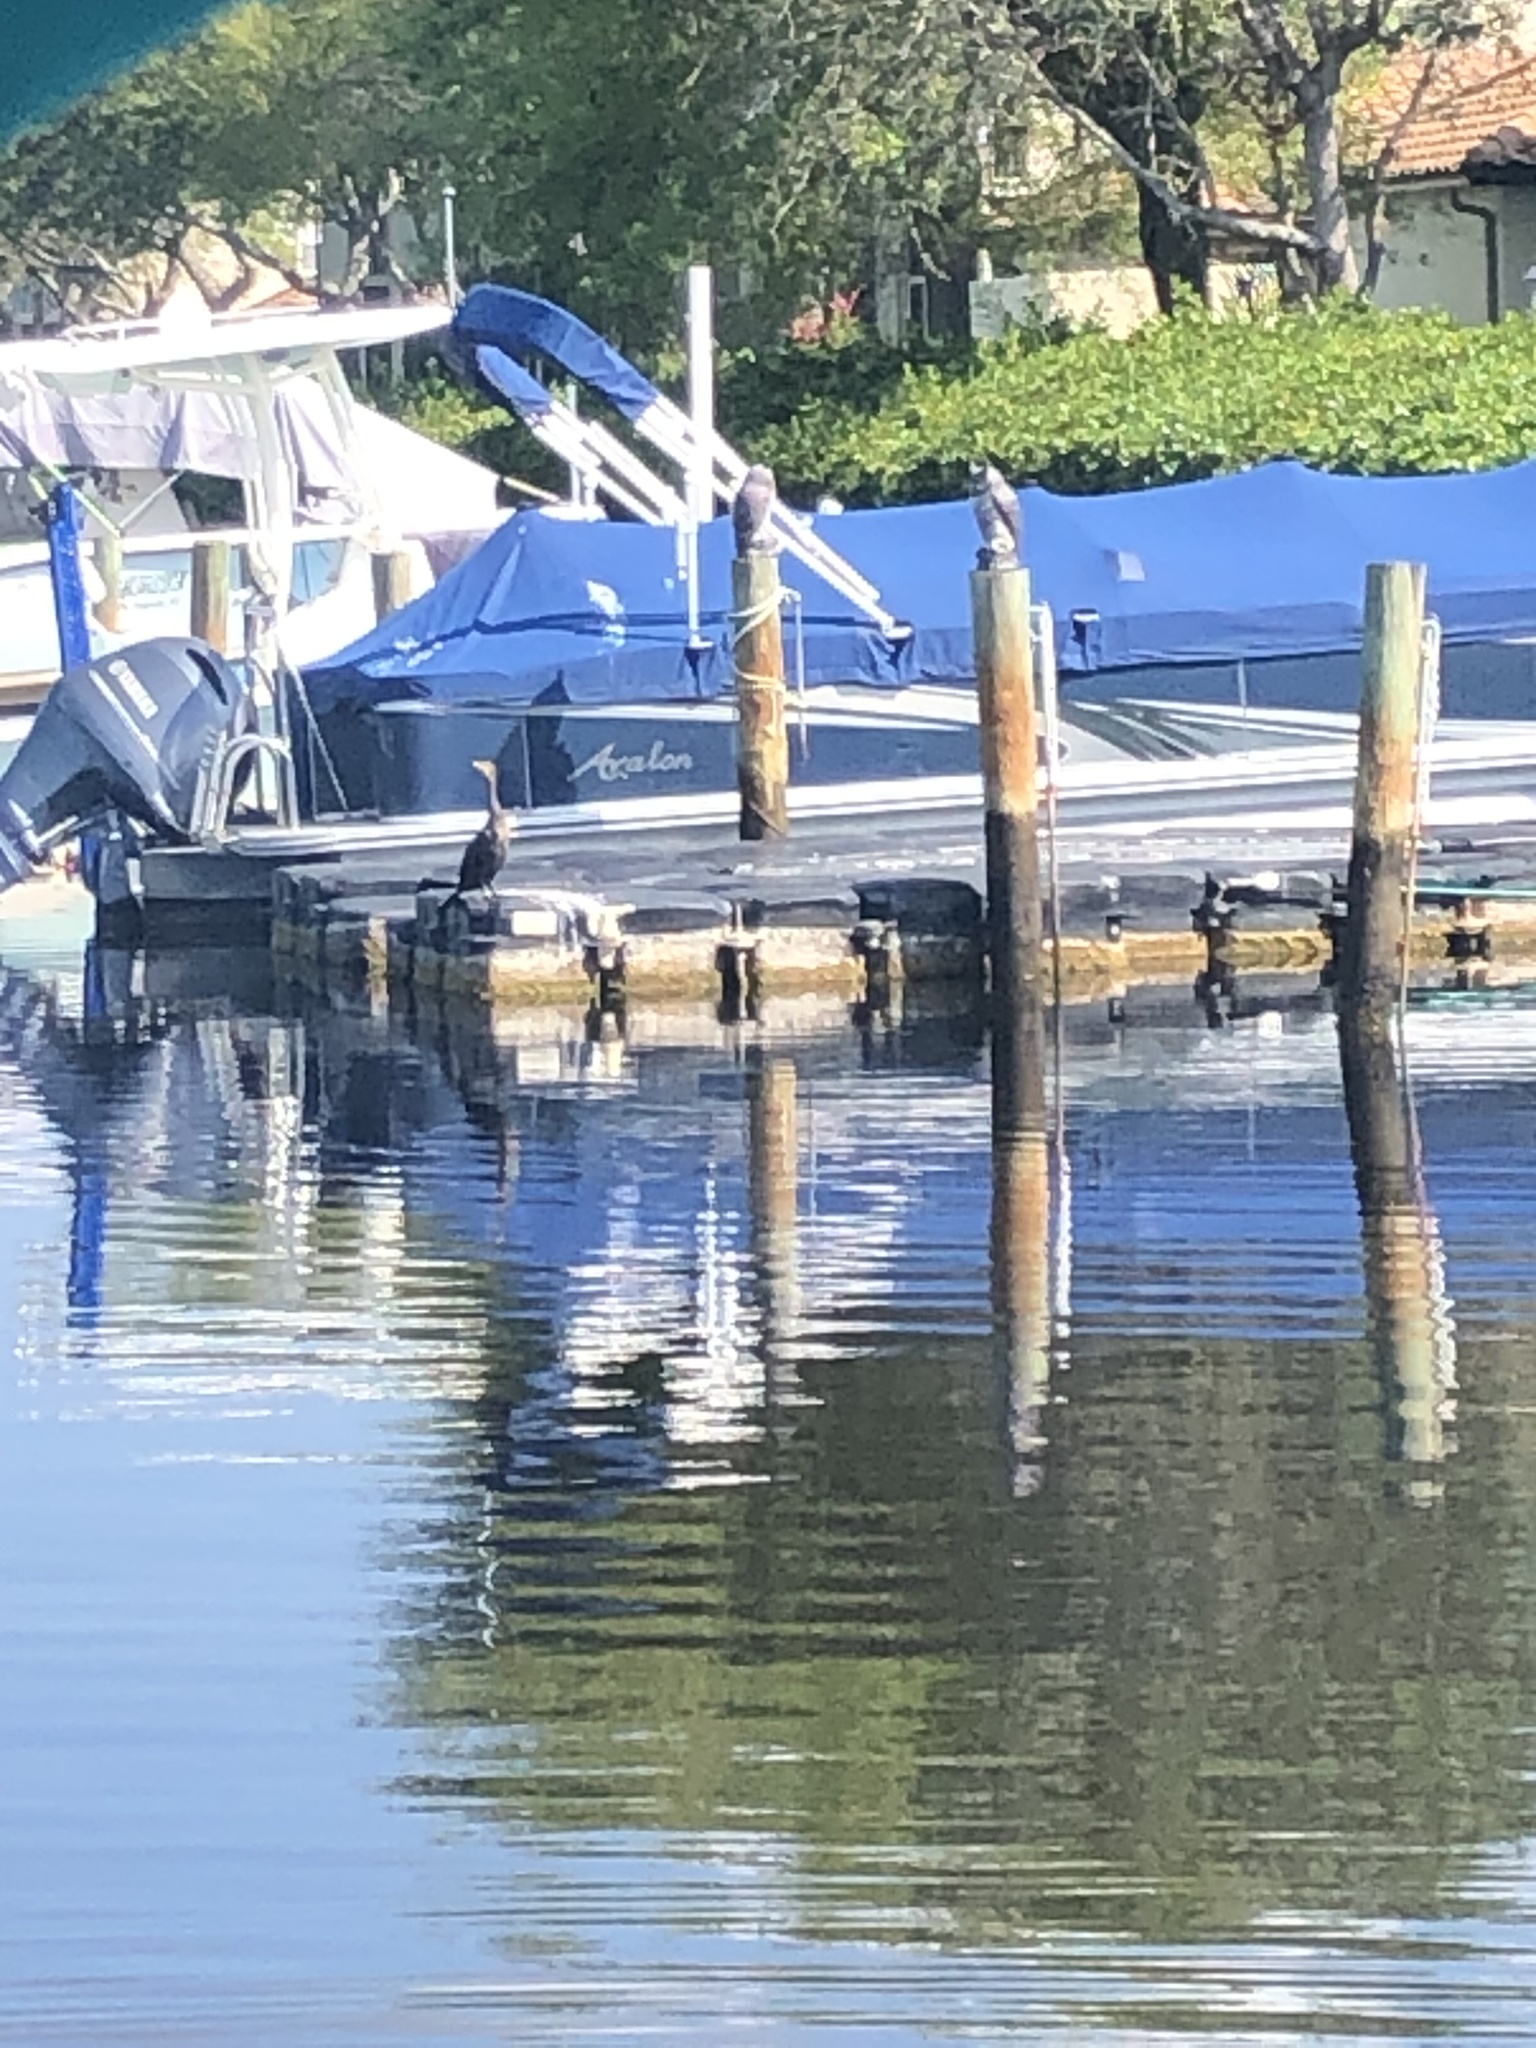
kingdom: Animalia
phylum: Chordata
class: Aves
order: Suliformes
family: Phalacrocoracidae
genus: Phalacrocorax
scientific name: Phalacrocorax auritus
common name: Double-crested cormorant
